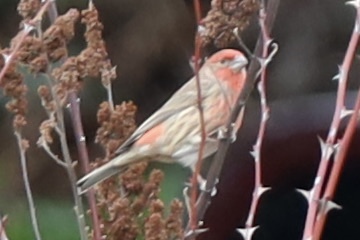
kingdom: Animalia
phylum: Chordata
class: Aves
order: Passeriformes
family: Fringillidae
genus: Haemorhous
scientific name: Haemorhous mexicanus
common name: House finch
